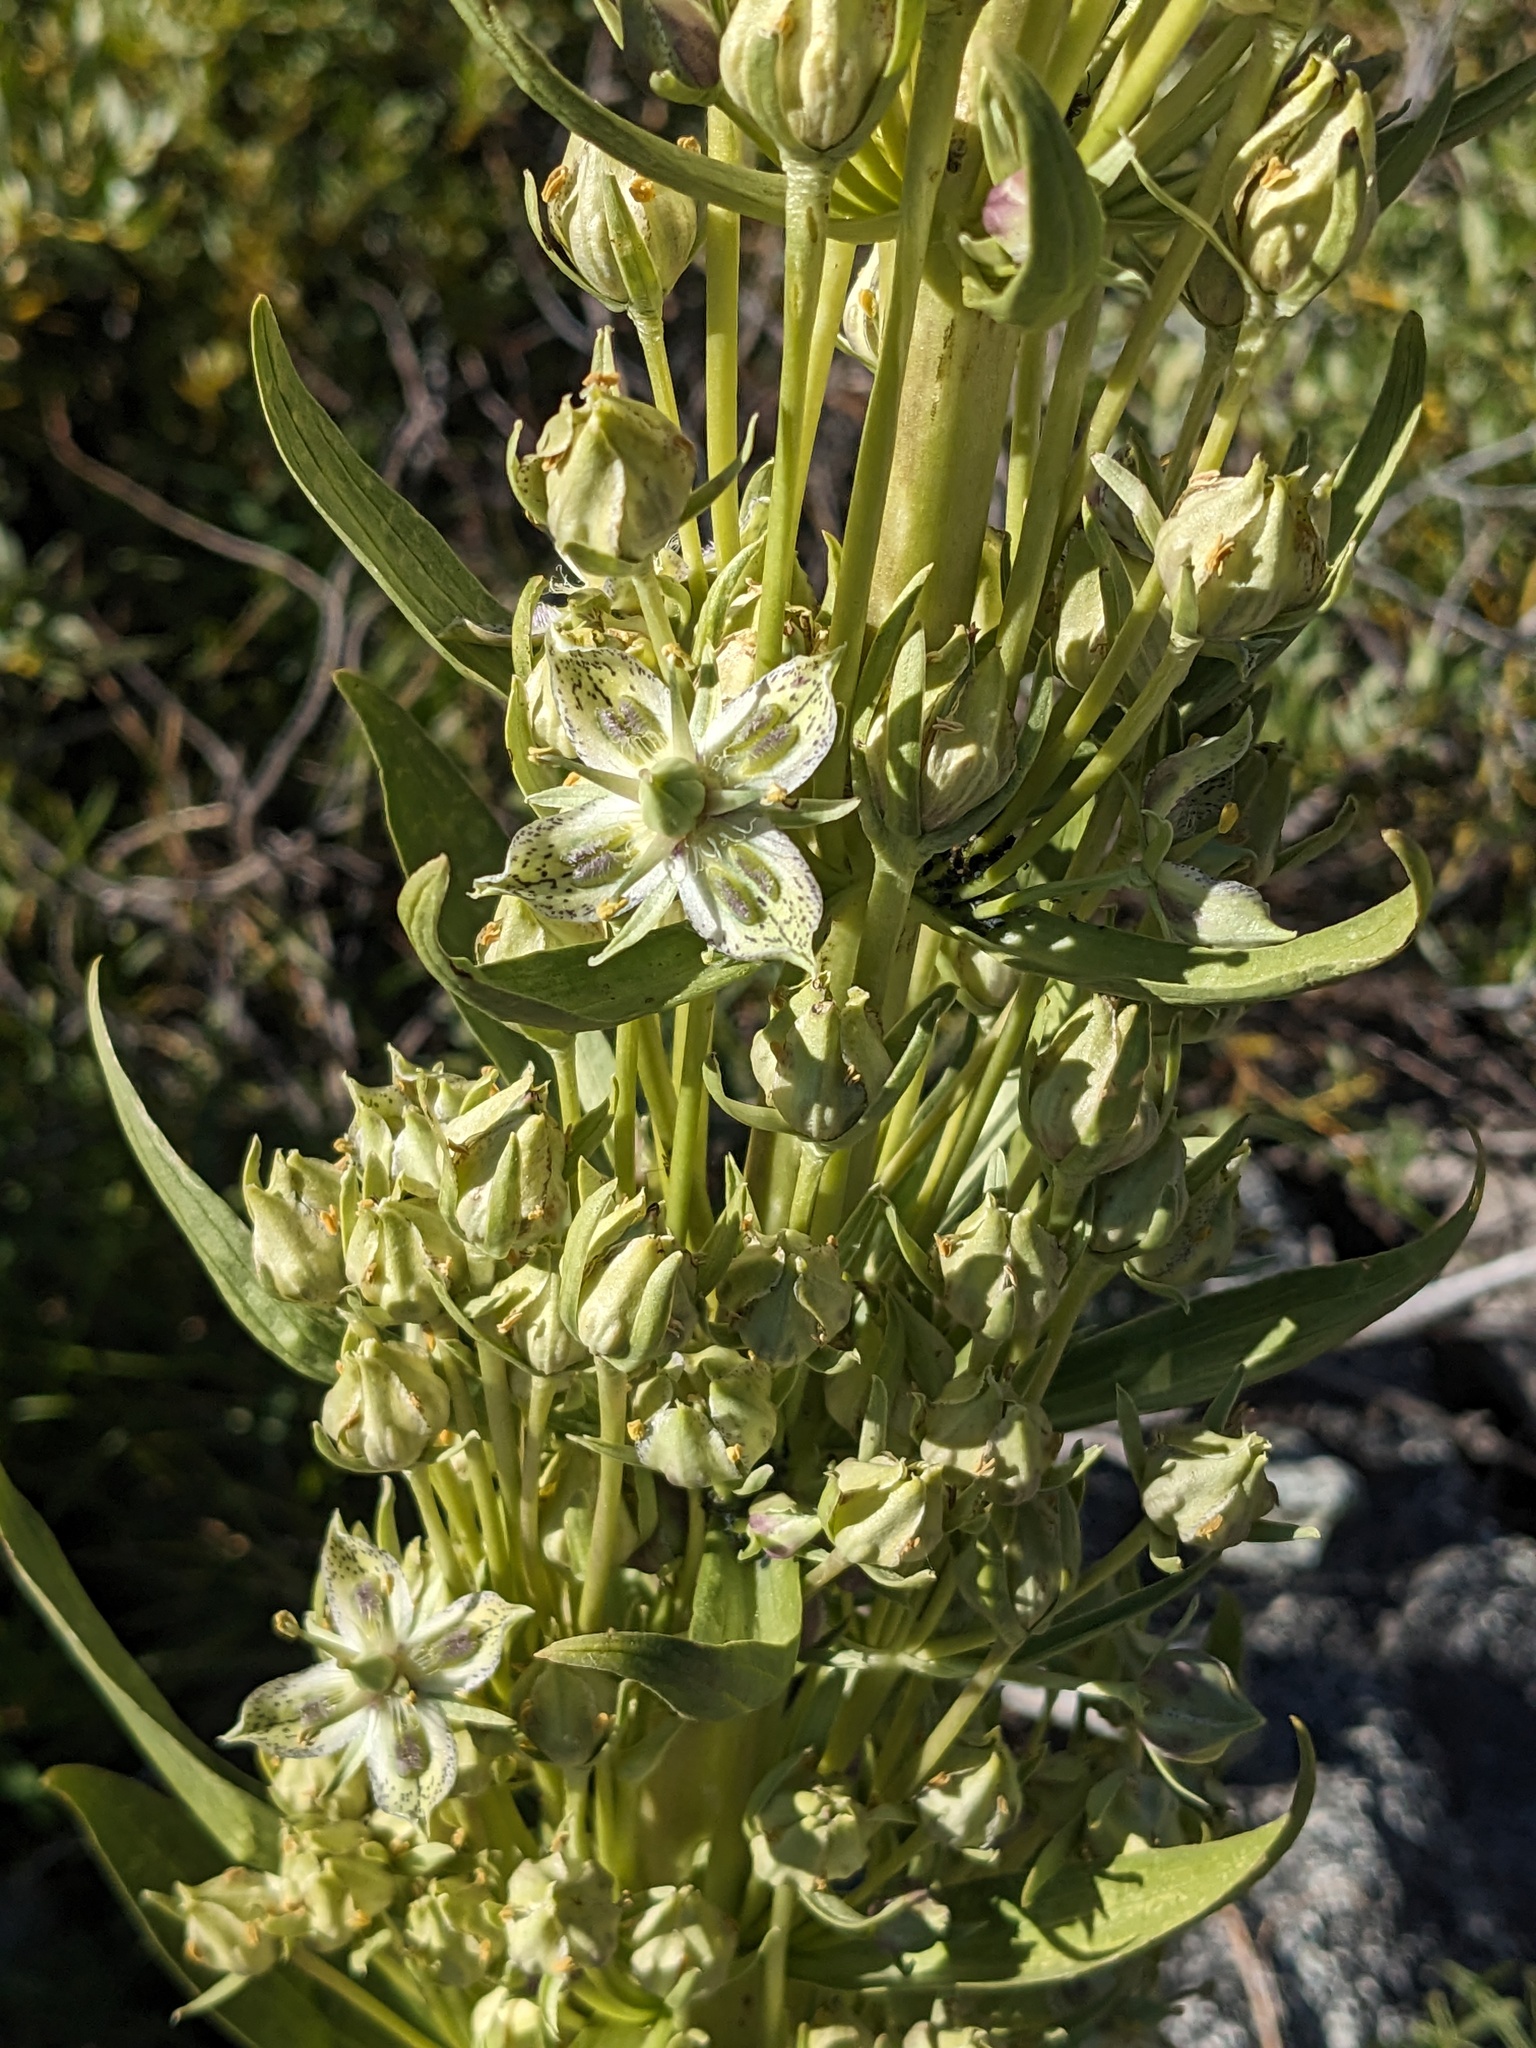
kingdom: Plantae
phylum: Tracheophyta
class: Magnoliopsida
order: Gentianales
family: Gentianaceae
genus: Frasera
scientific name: Frasera speciosa
